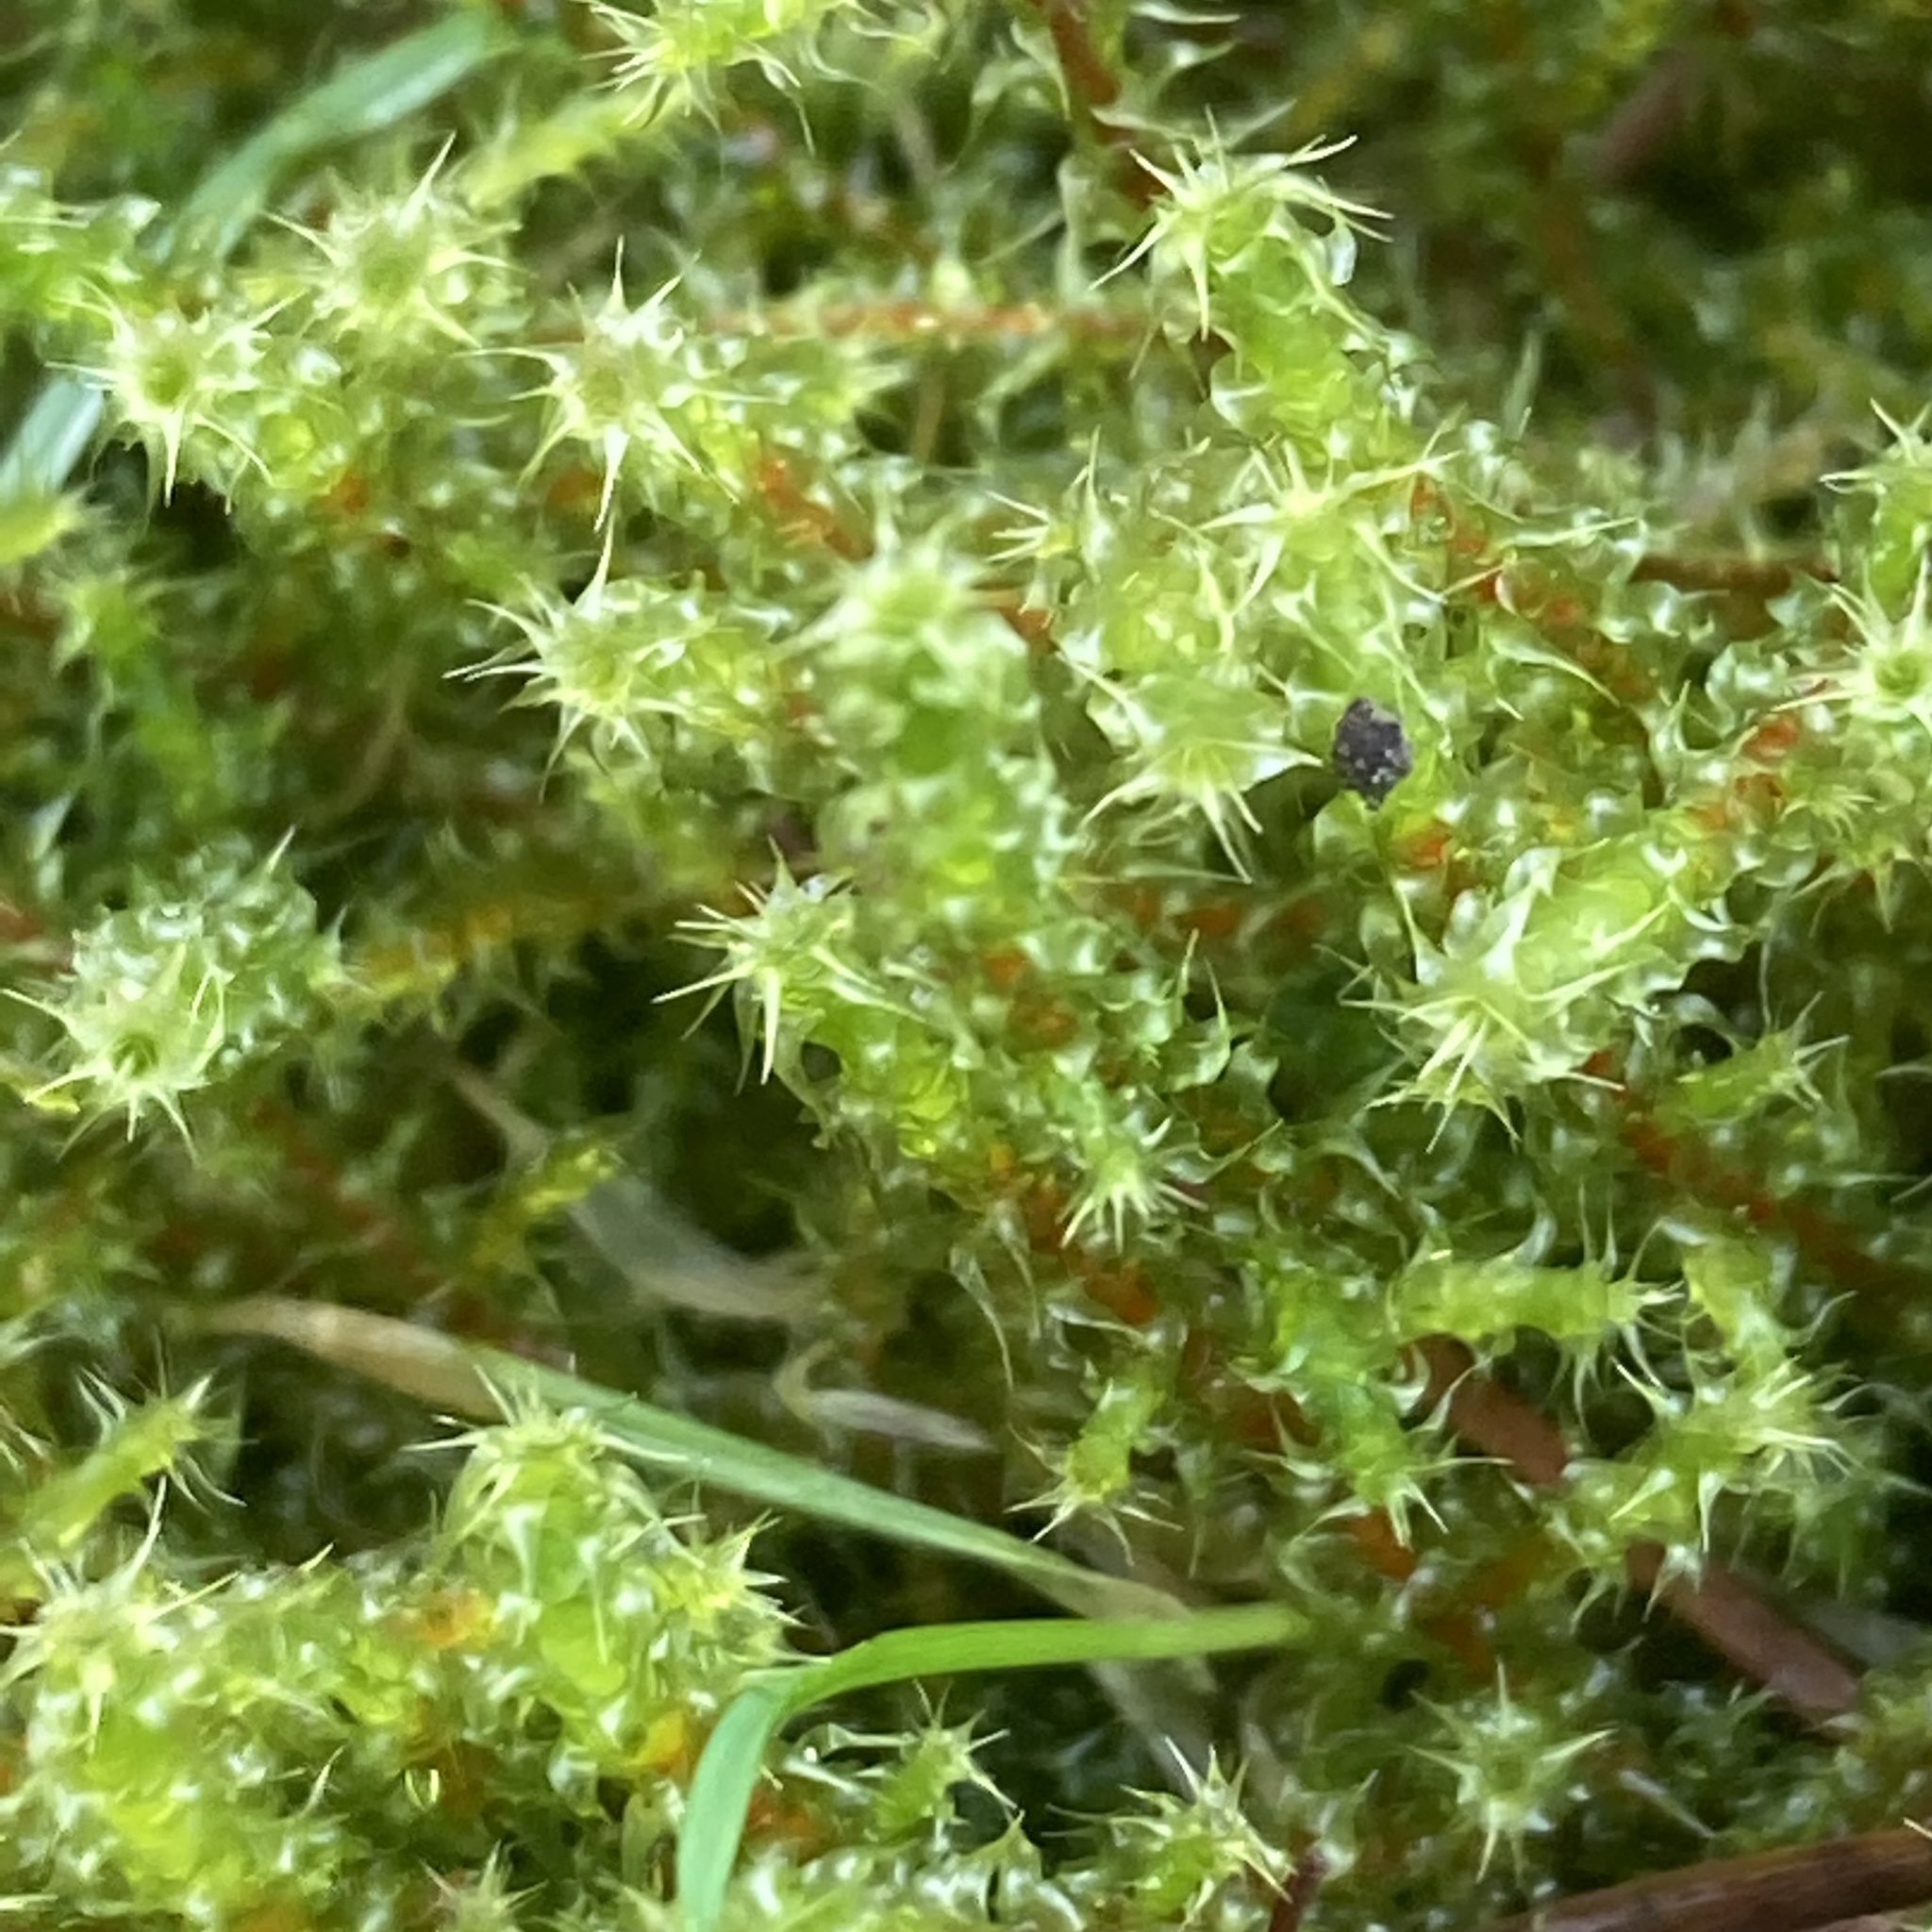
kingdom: Plantae
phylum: Bryophyta
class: Bryopsida
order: Hypnales
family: Hylocomiaceae
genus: Rhytidiadelphus
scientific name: Rhytidiadelphus squarrosus
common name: Springy turf-moss
